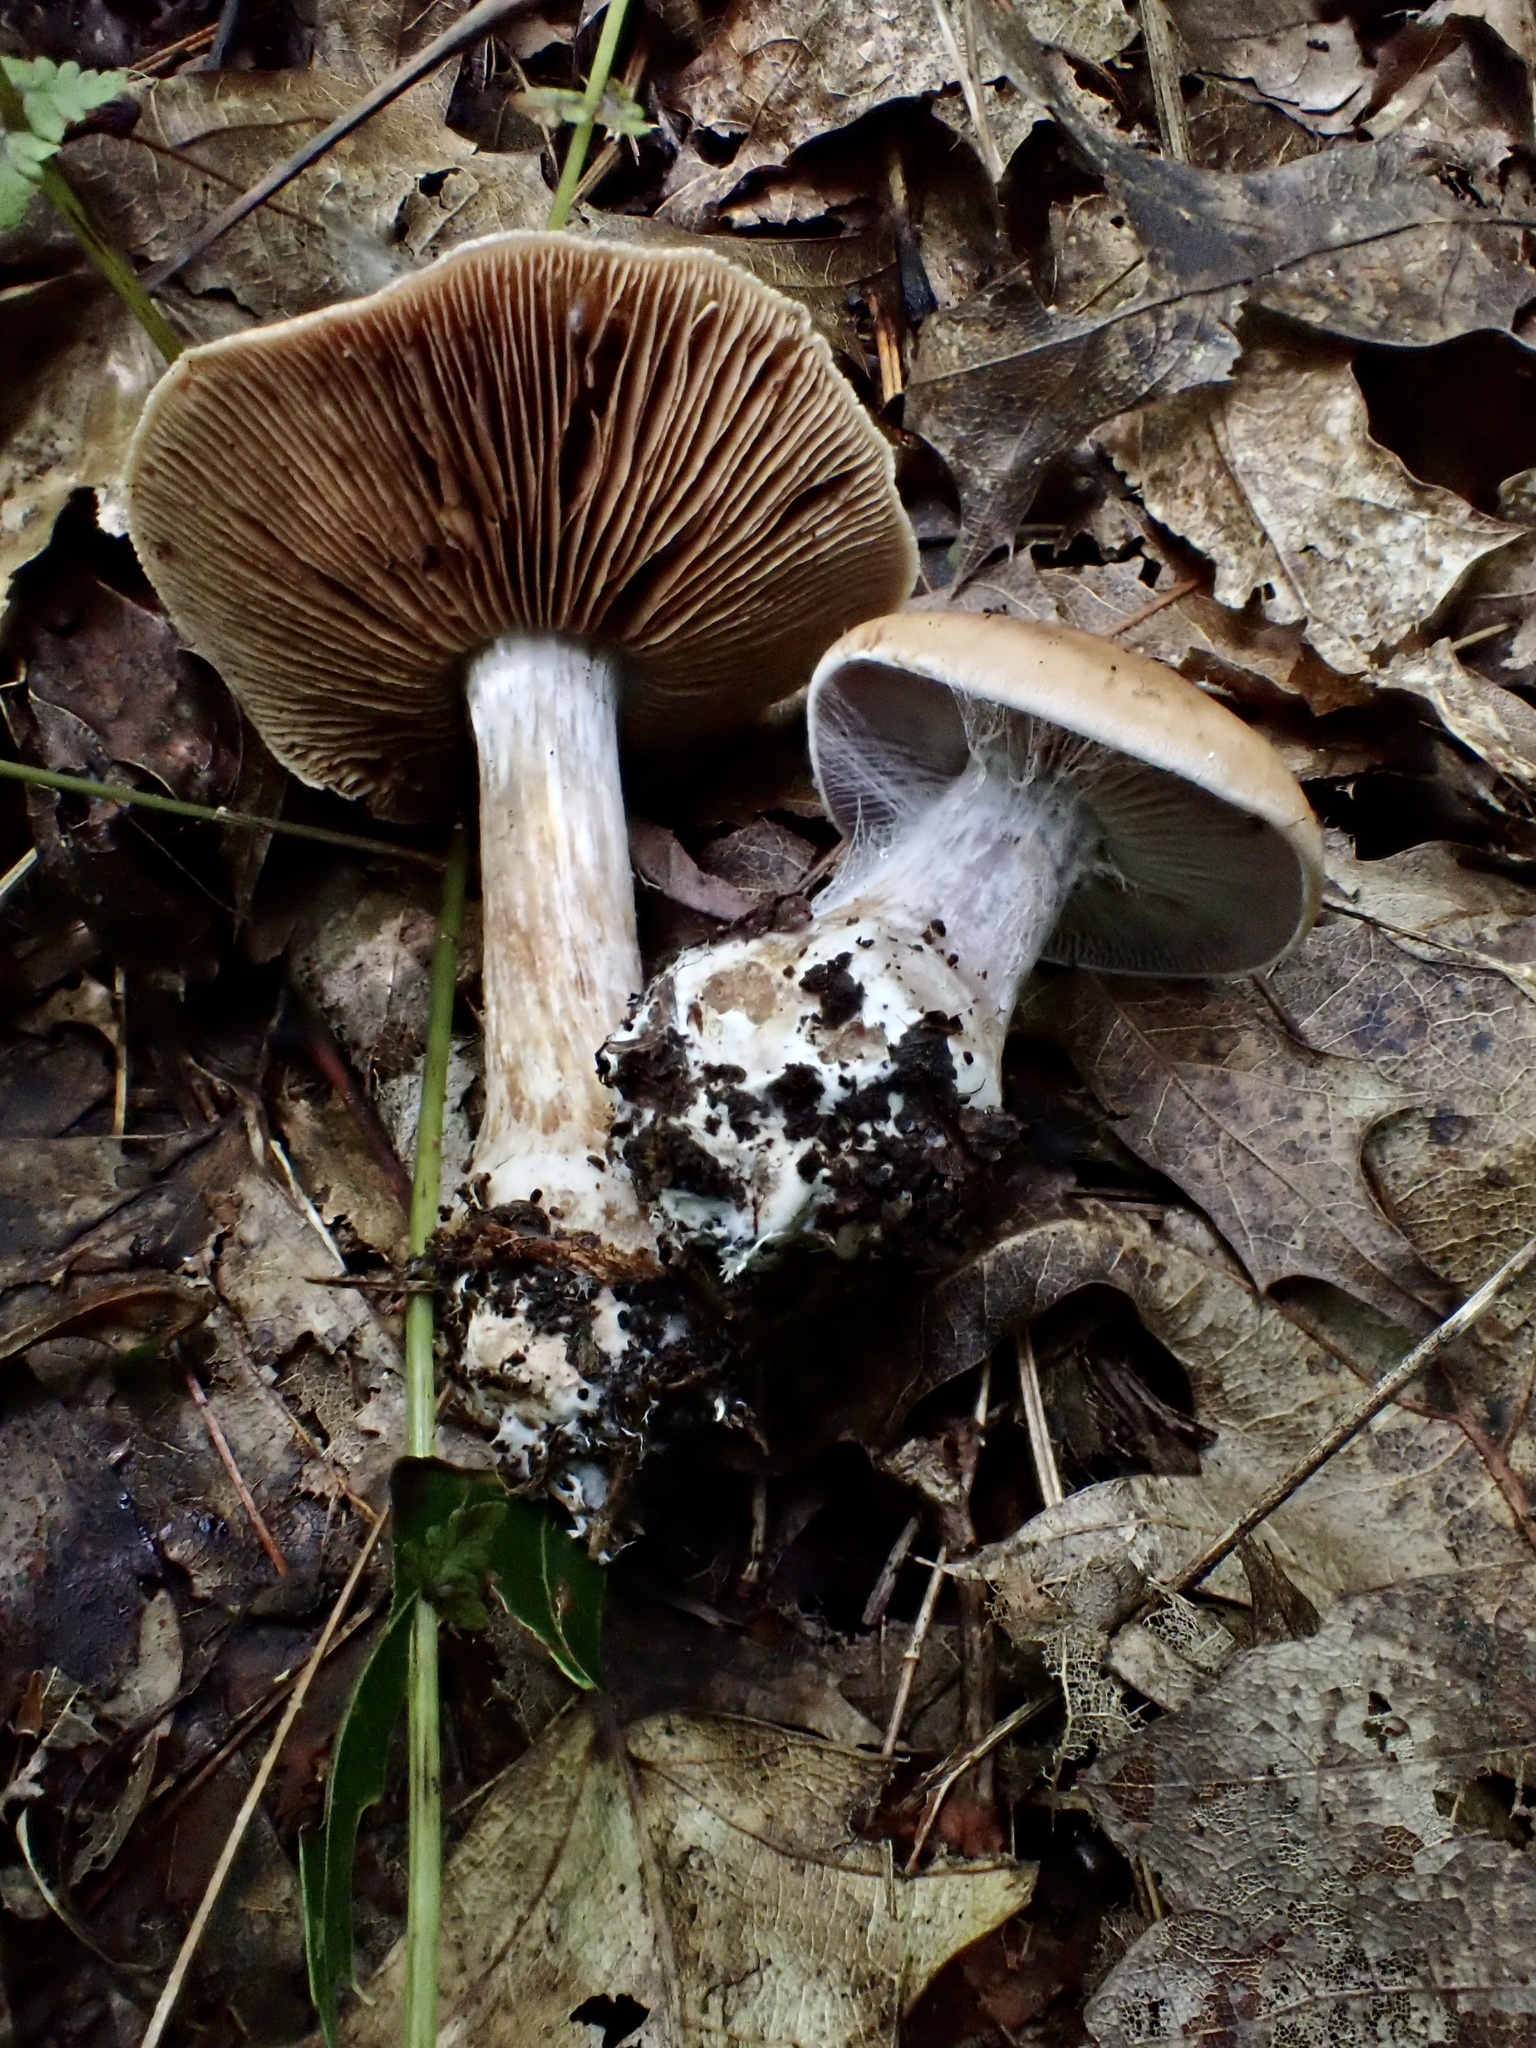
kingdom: Fungi
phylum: Basidiomycota
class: Agaricomycetes
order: Agaricales
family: Cortinariaceae
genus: Cortinarius
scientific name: Cortinarius quercophilus
